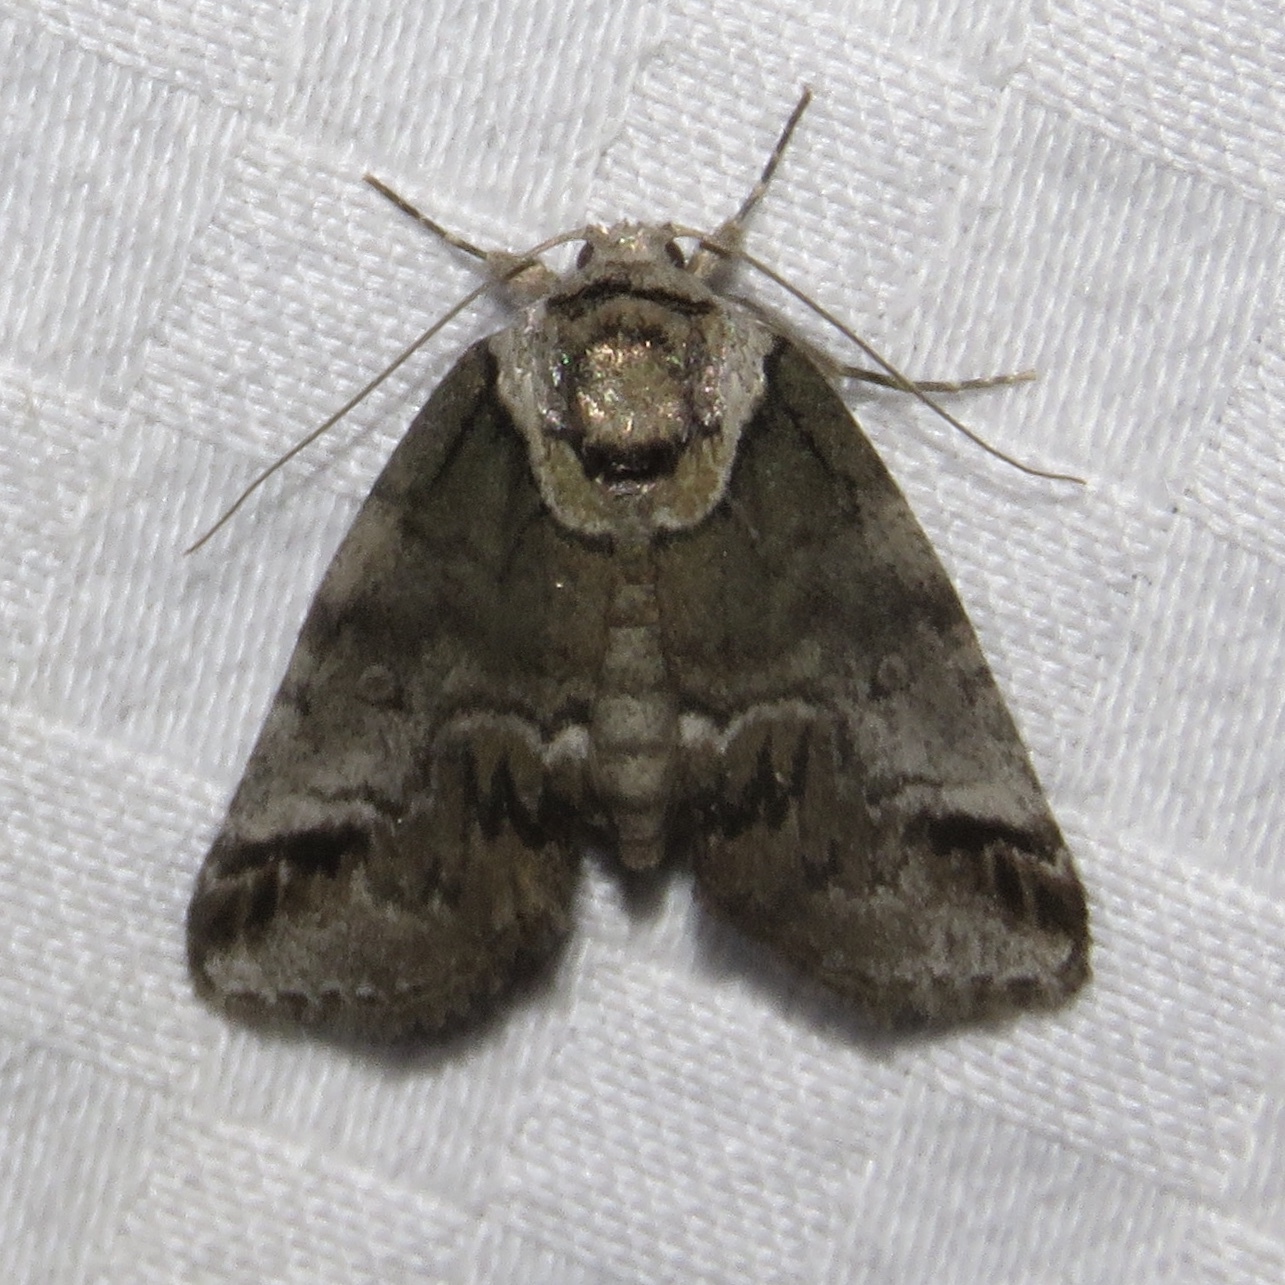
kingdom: Animalia
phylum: Arthropoda
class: Insecta
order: Lepidoptera
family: Nolidae
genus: Baileya
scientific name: Baileya australis
